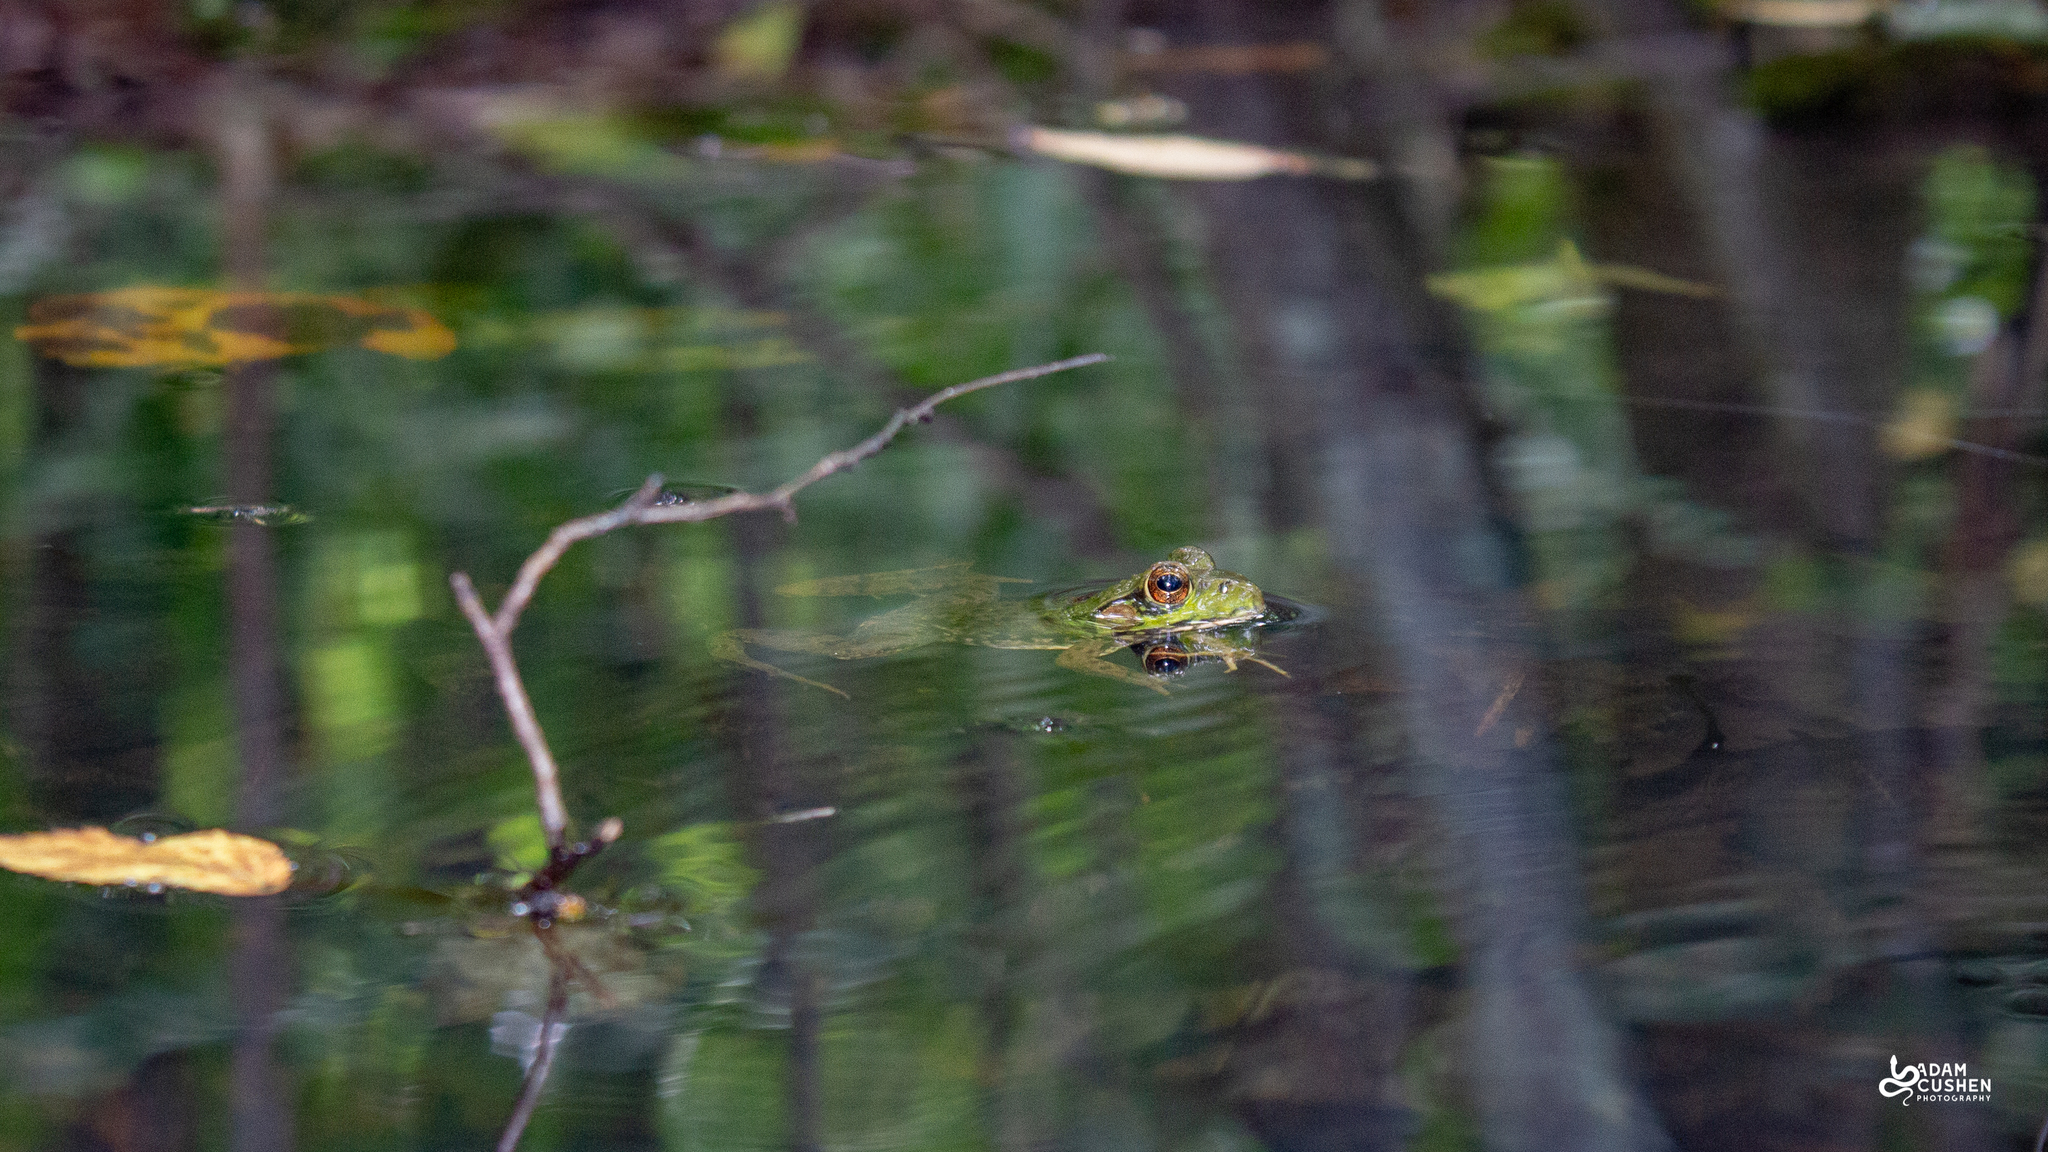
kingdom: Animalia
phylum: Chordata
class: Amphibia
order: Anura
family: Ranidae
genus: Lithobates
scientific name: Lithobates clamitans
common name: Green frog
